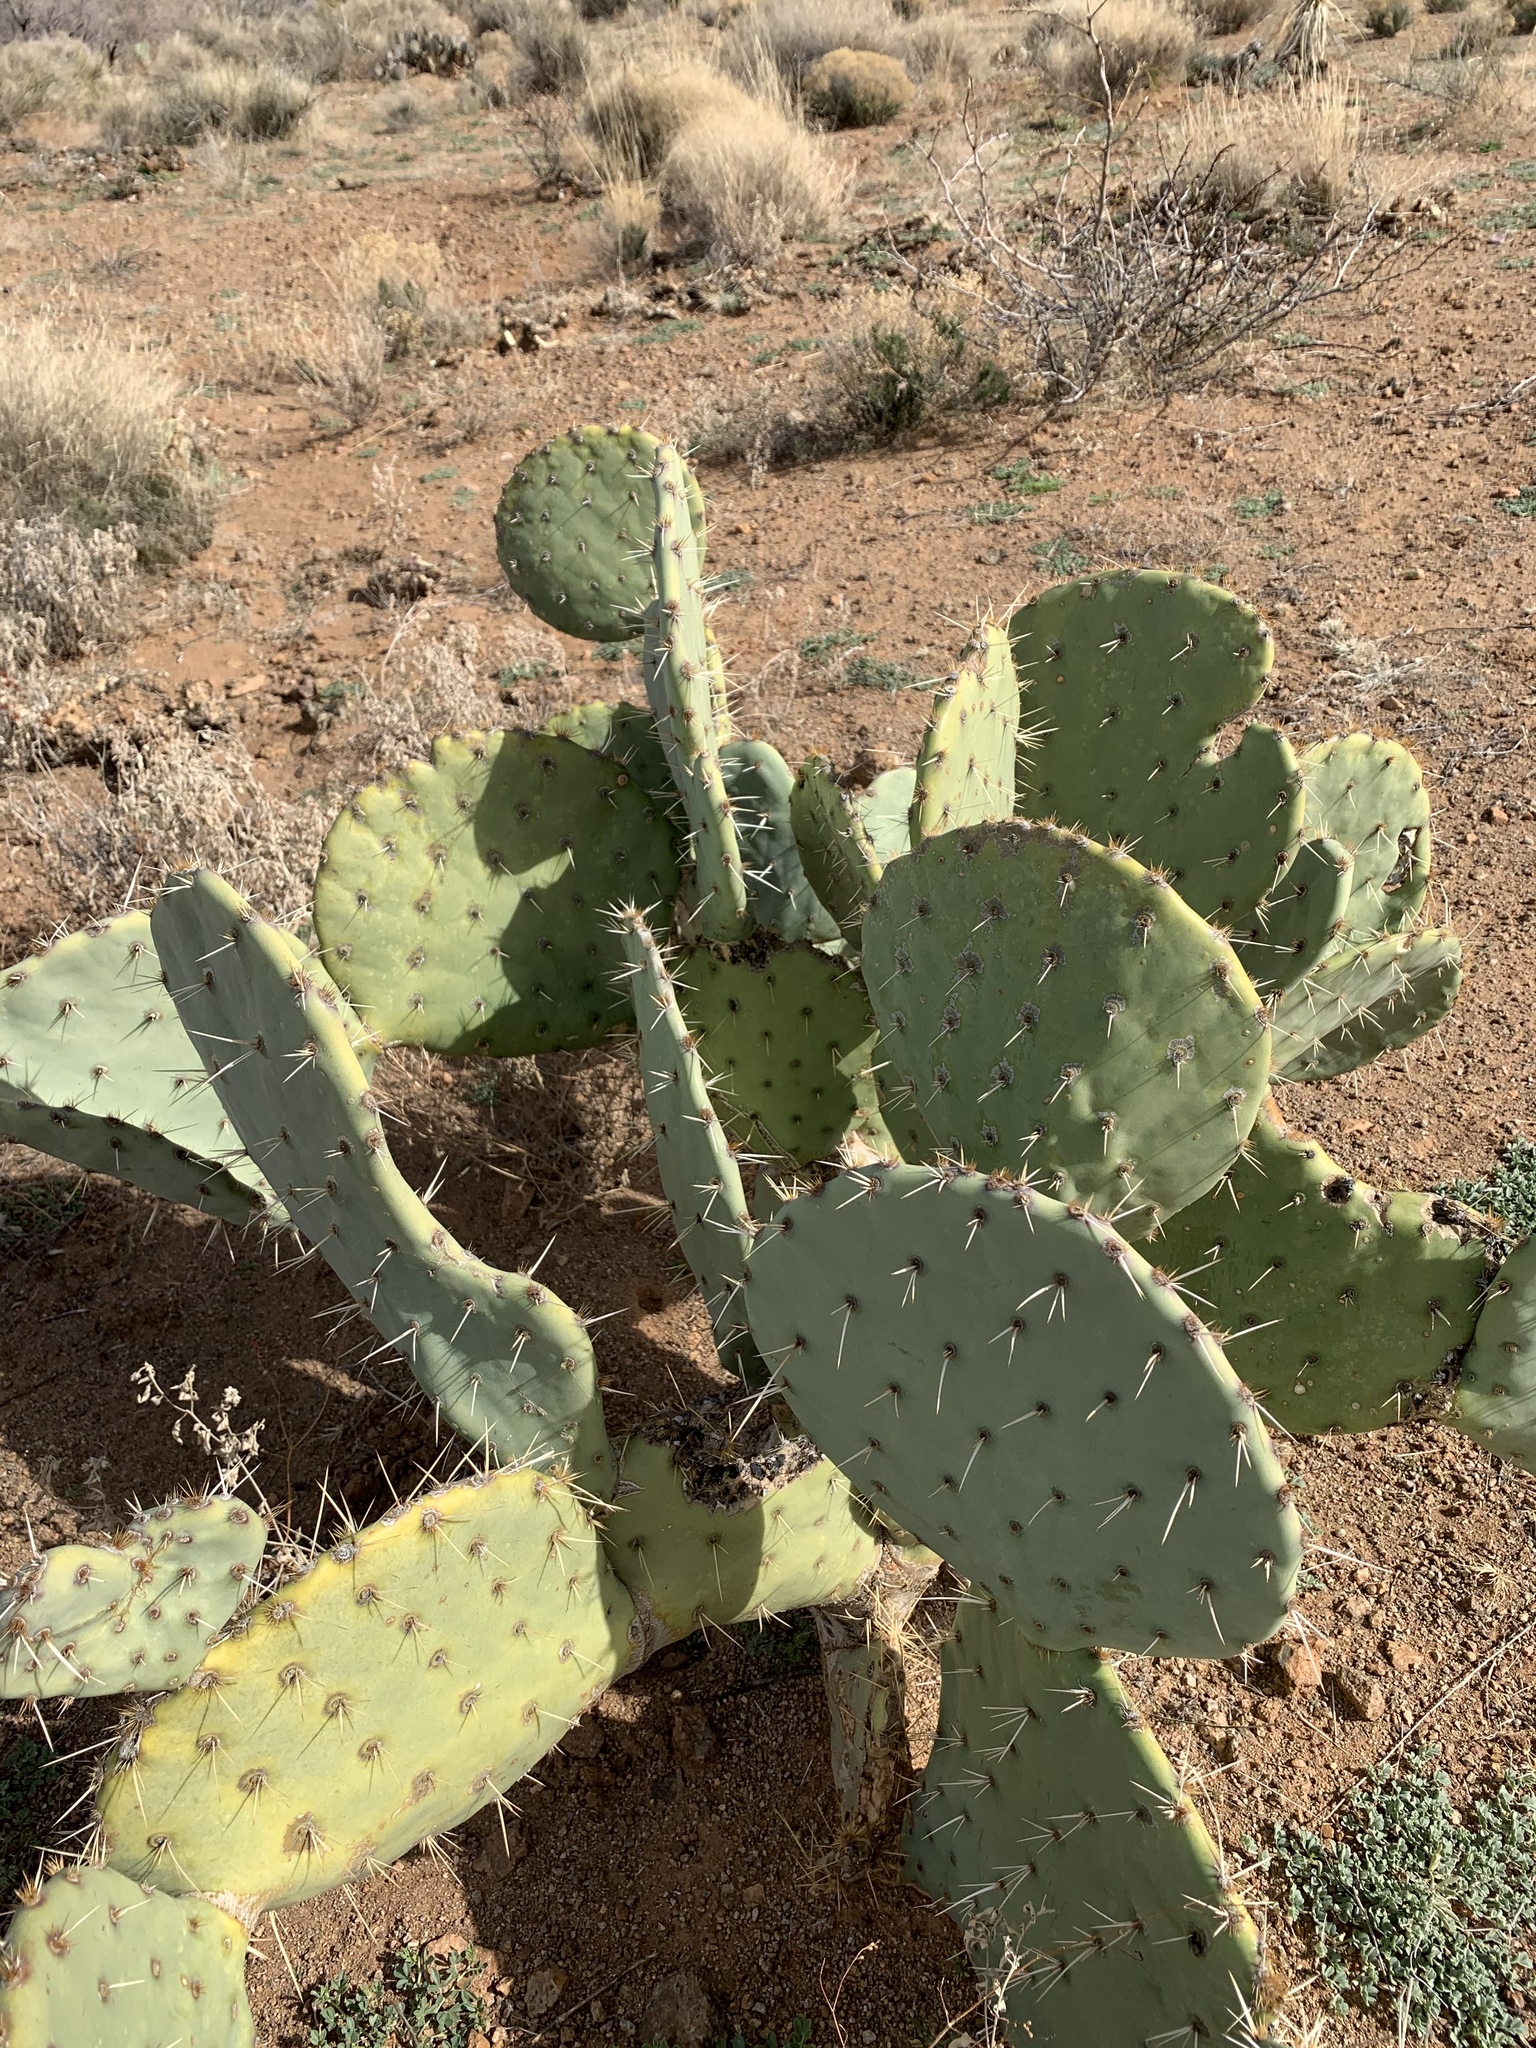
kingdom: Plantae
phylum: Tracheophyta
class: Magnoliopsida
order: Caryophyllales
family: Cactaceae
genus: Opuntia
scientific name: Opuntia engelmannii
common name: Cactus-apple
